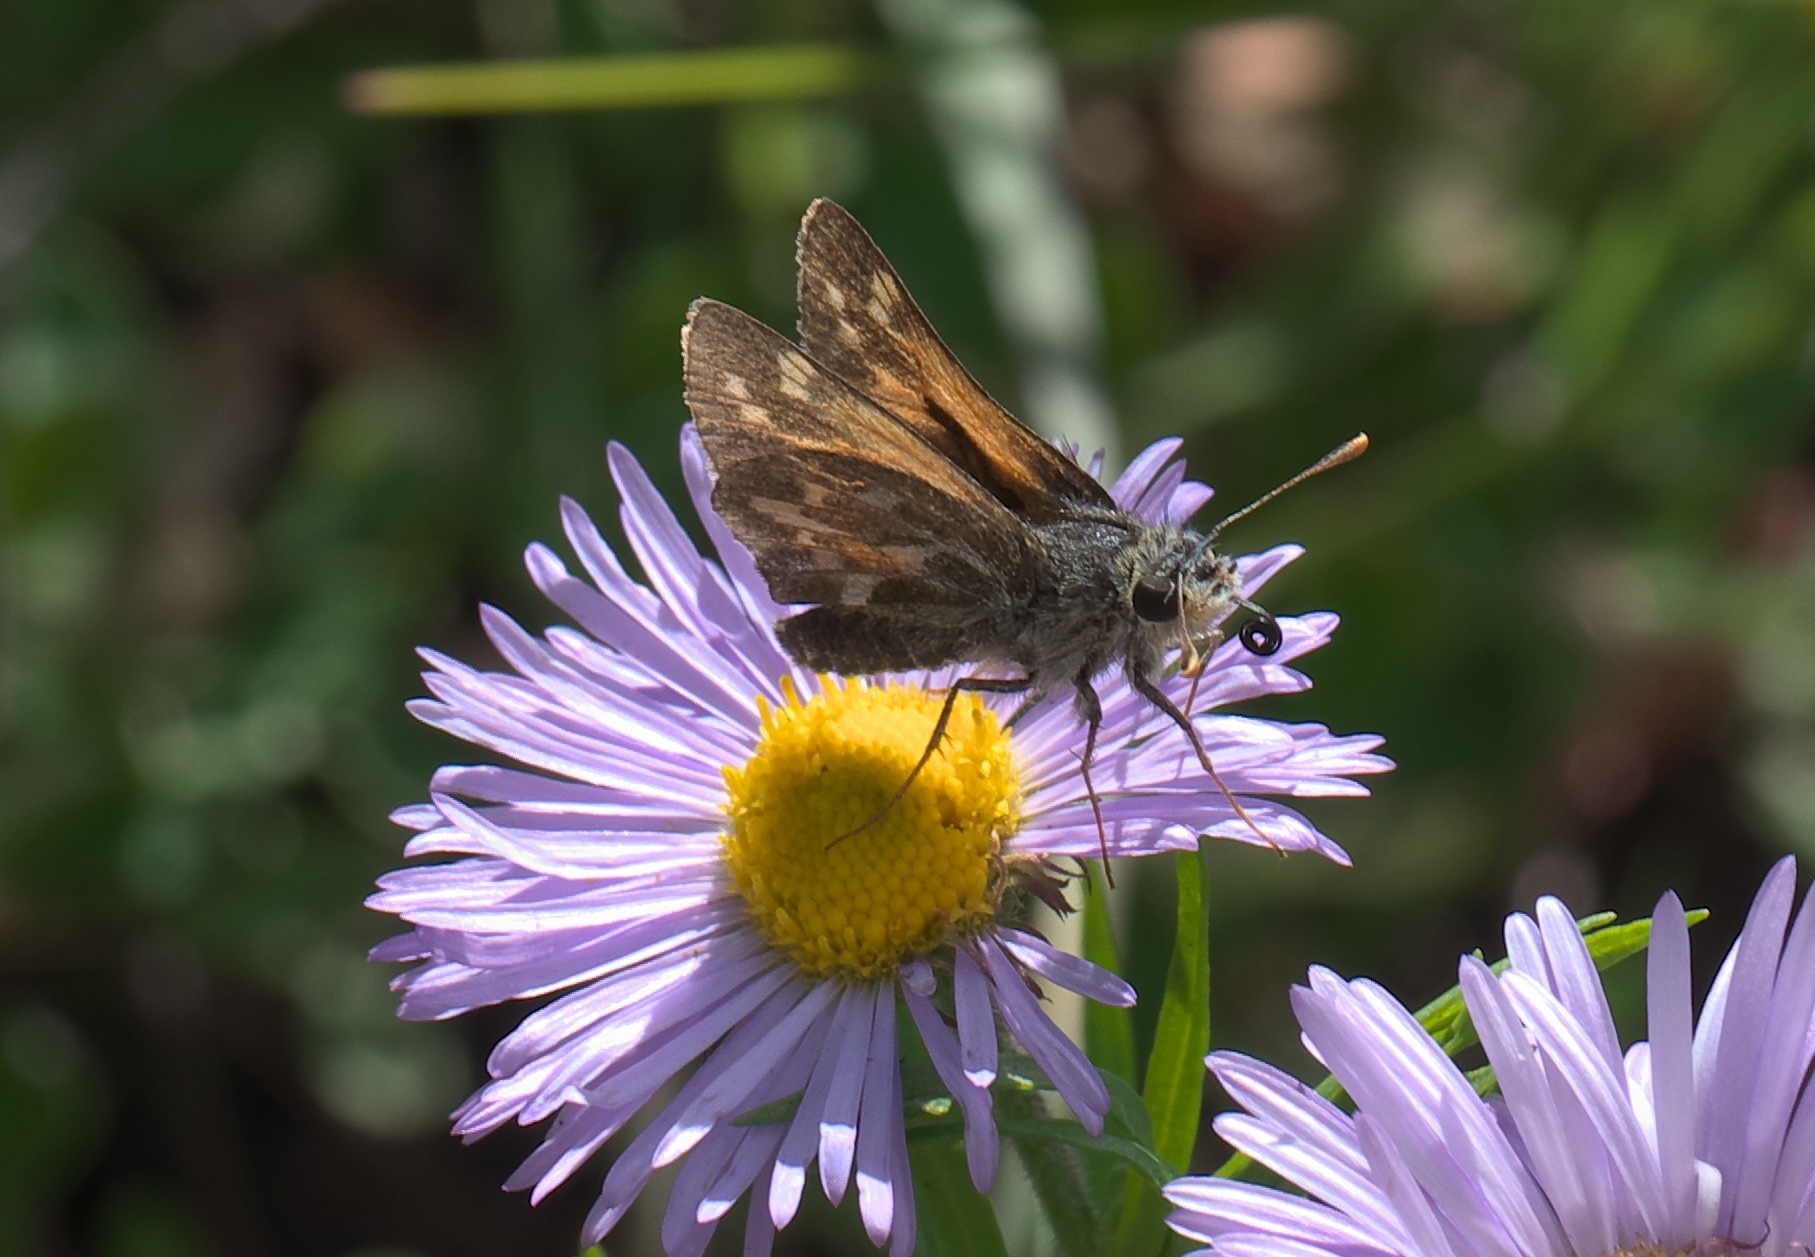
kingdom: Animalia
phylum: Arthropoda
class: Insecta
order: Lepidoptera
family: Hesperiidae
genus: Polites
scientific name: Polites sabuleti
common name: Sandhill skipper
